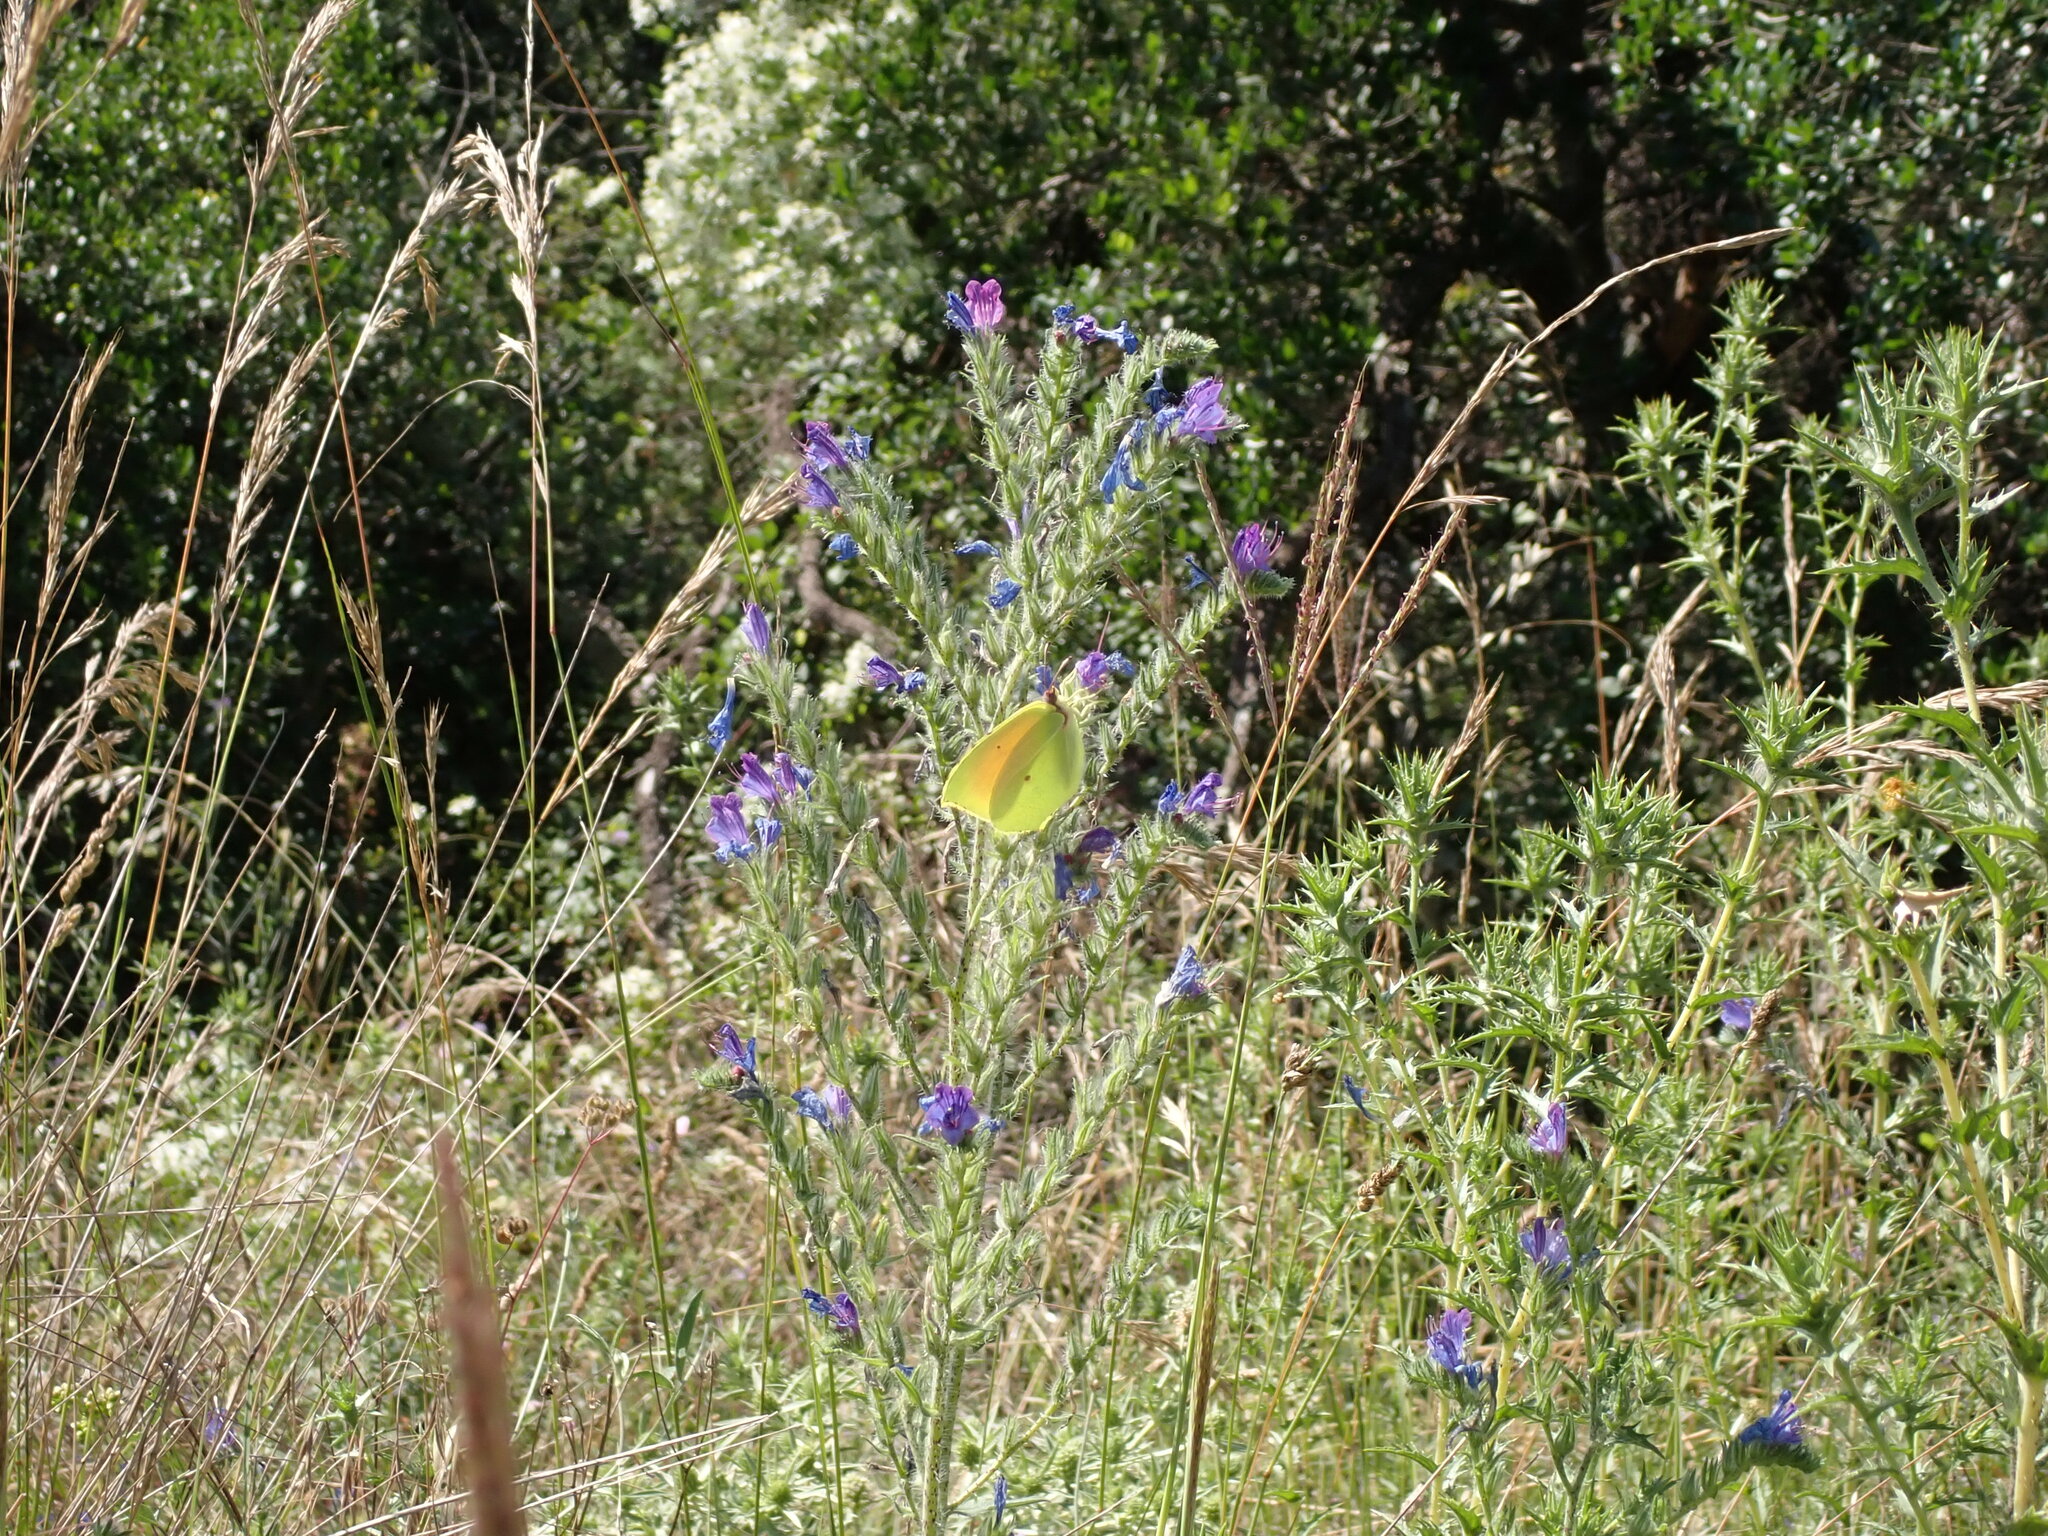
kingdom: Animalia
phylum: Arthropoda
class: Insecta
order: Lepidoptera
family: Pieridae
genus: Gonepteryx
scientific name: Gonepteryx cleopatra
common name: Cleopatra
